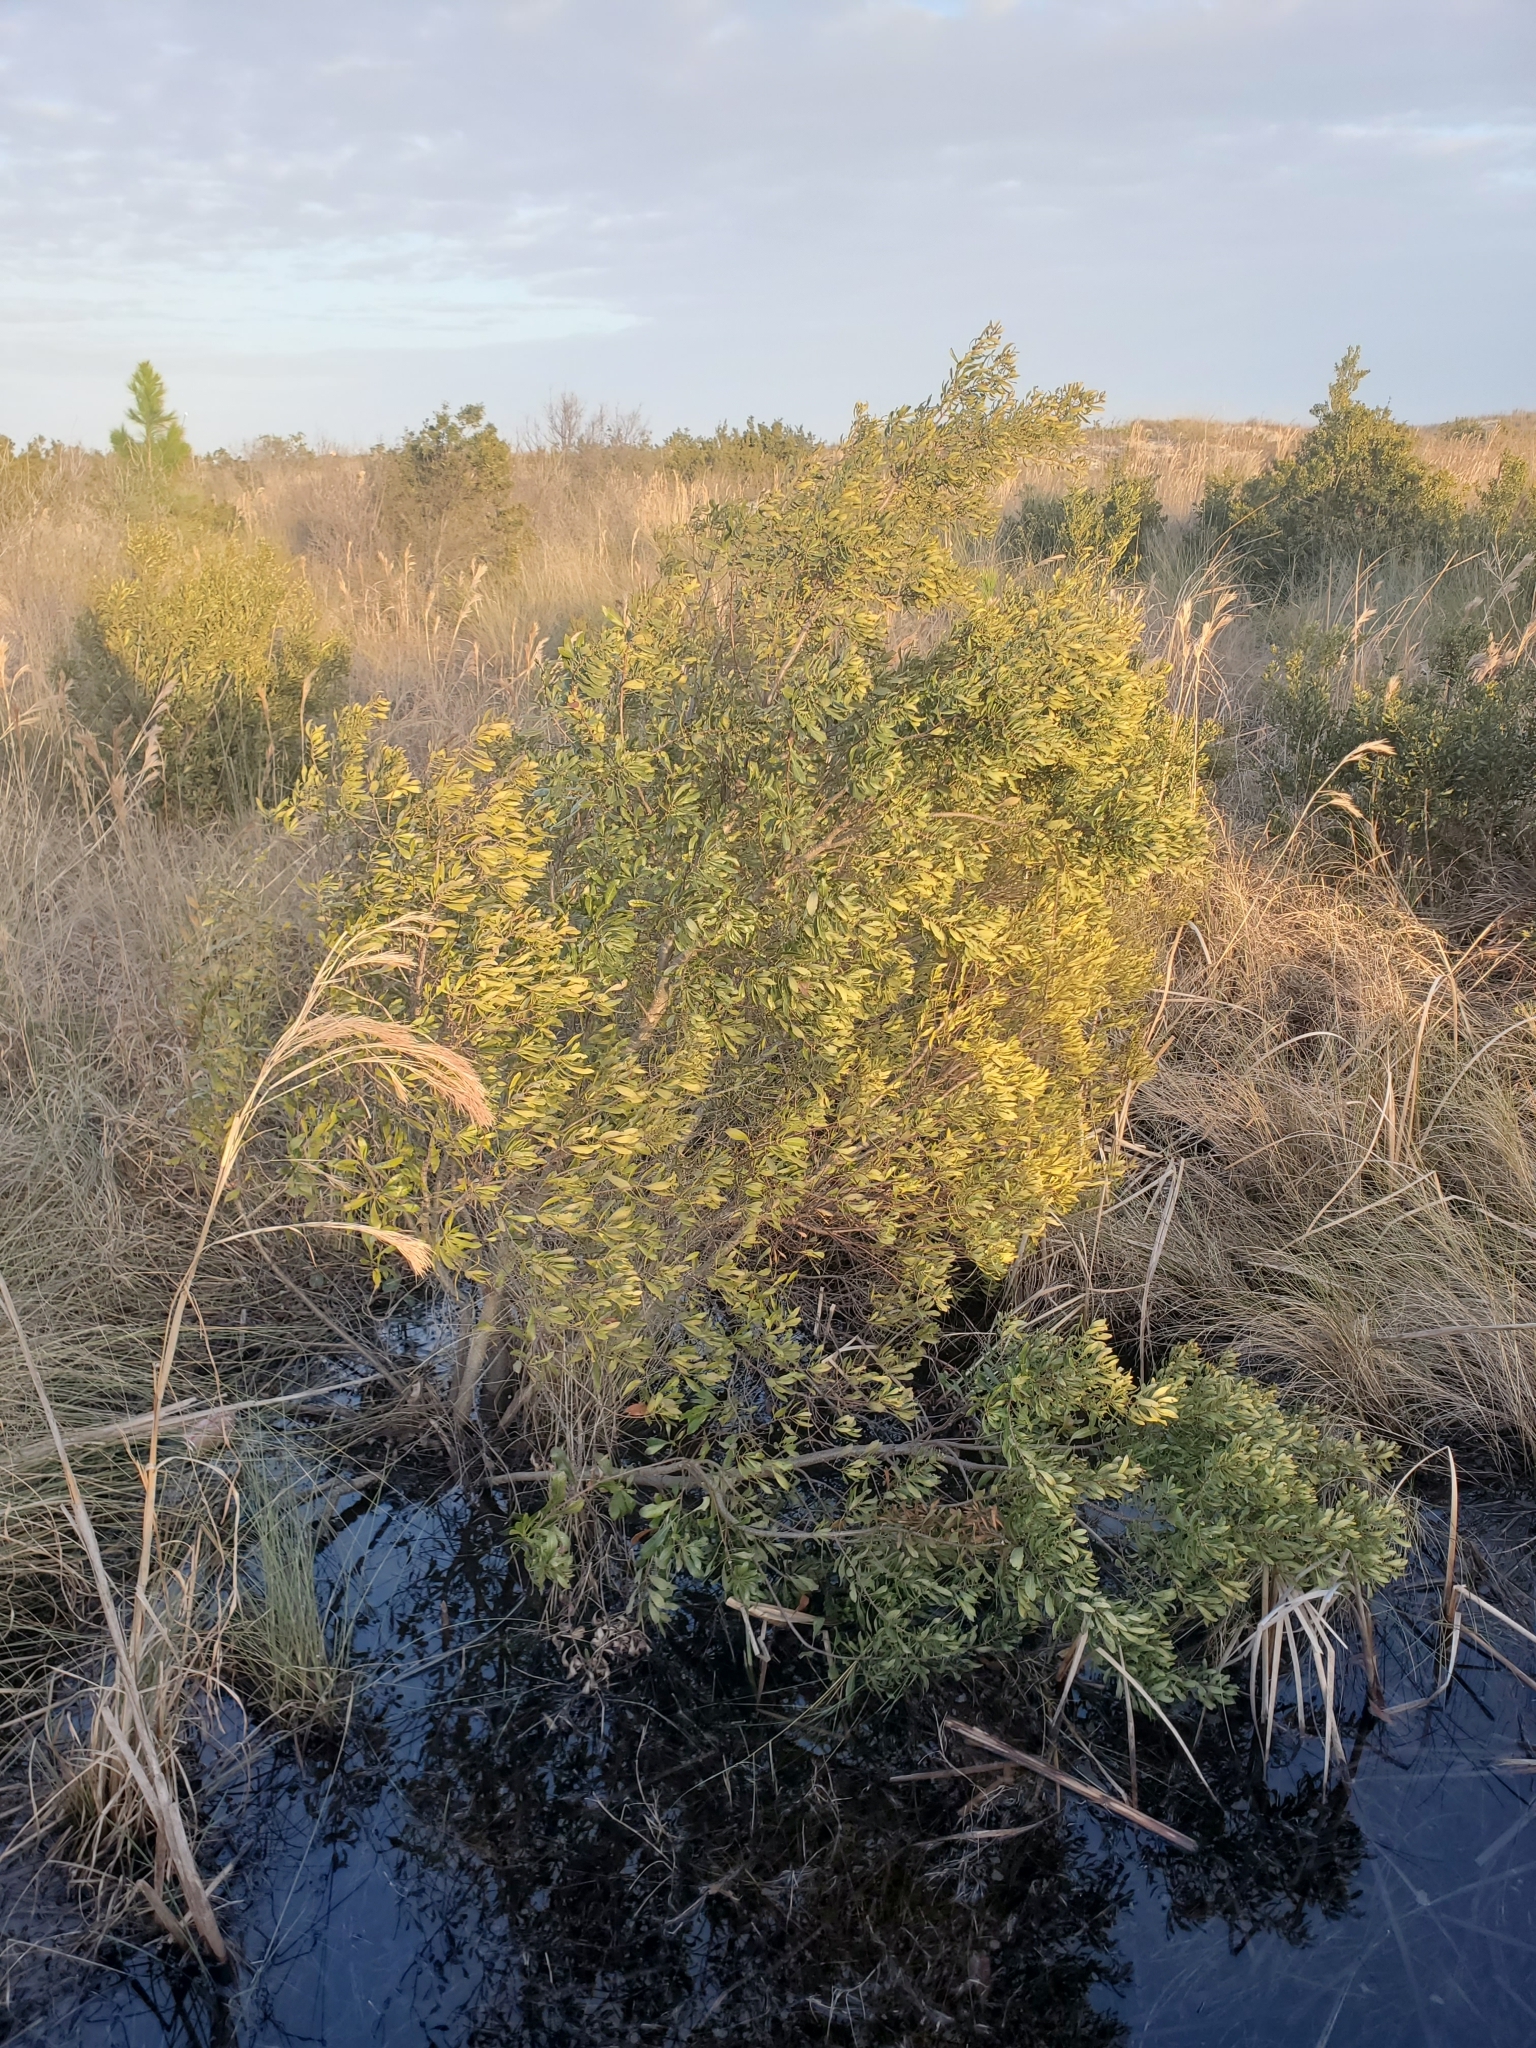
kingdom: Plantae
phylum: Tracheophyta
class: Magnoliopsida
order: Fagales
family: Myricaceae
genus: Morella
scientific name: Morella cerifera
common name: Wax myrtle
